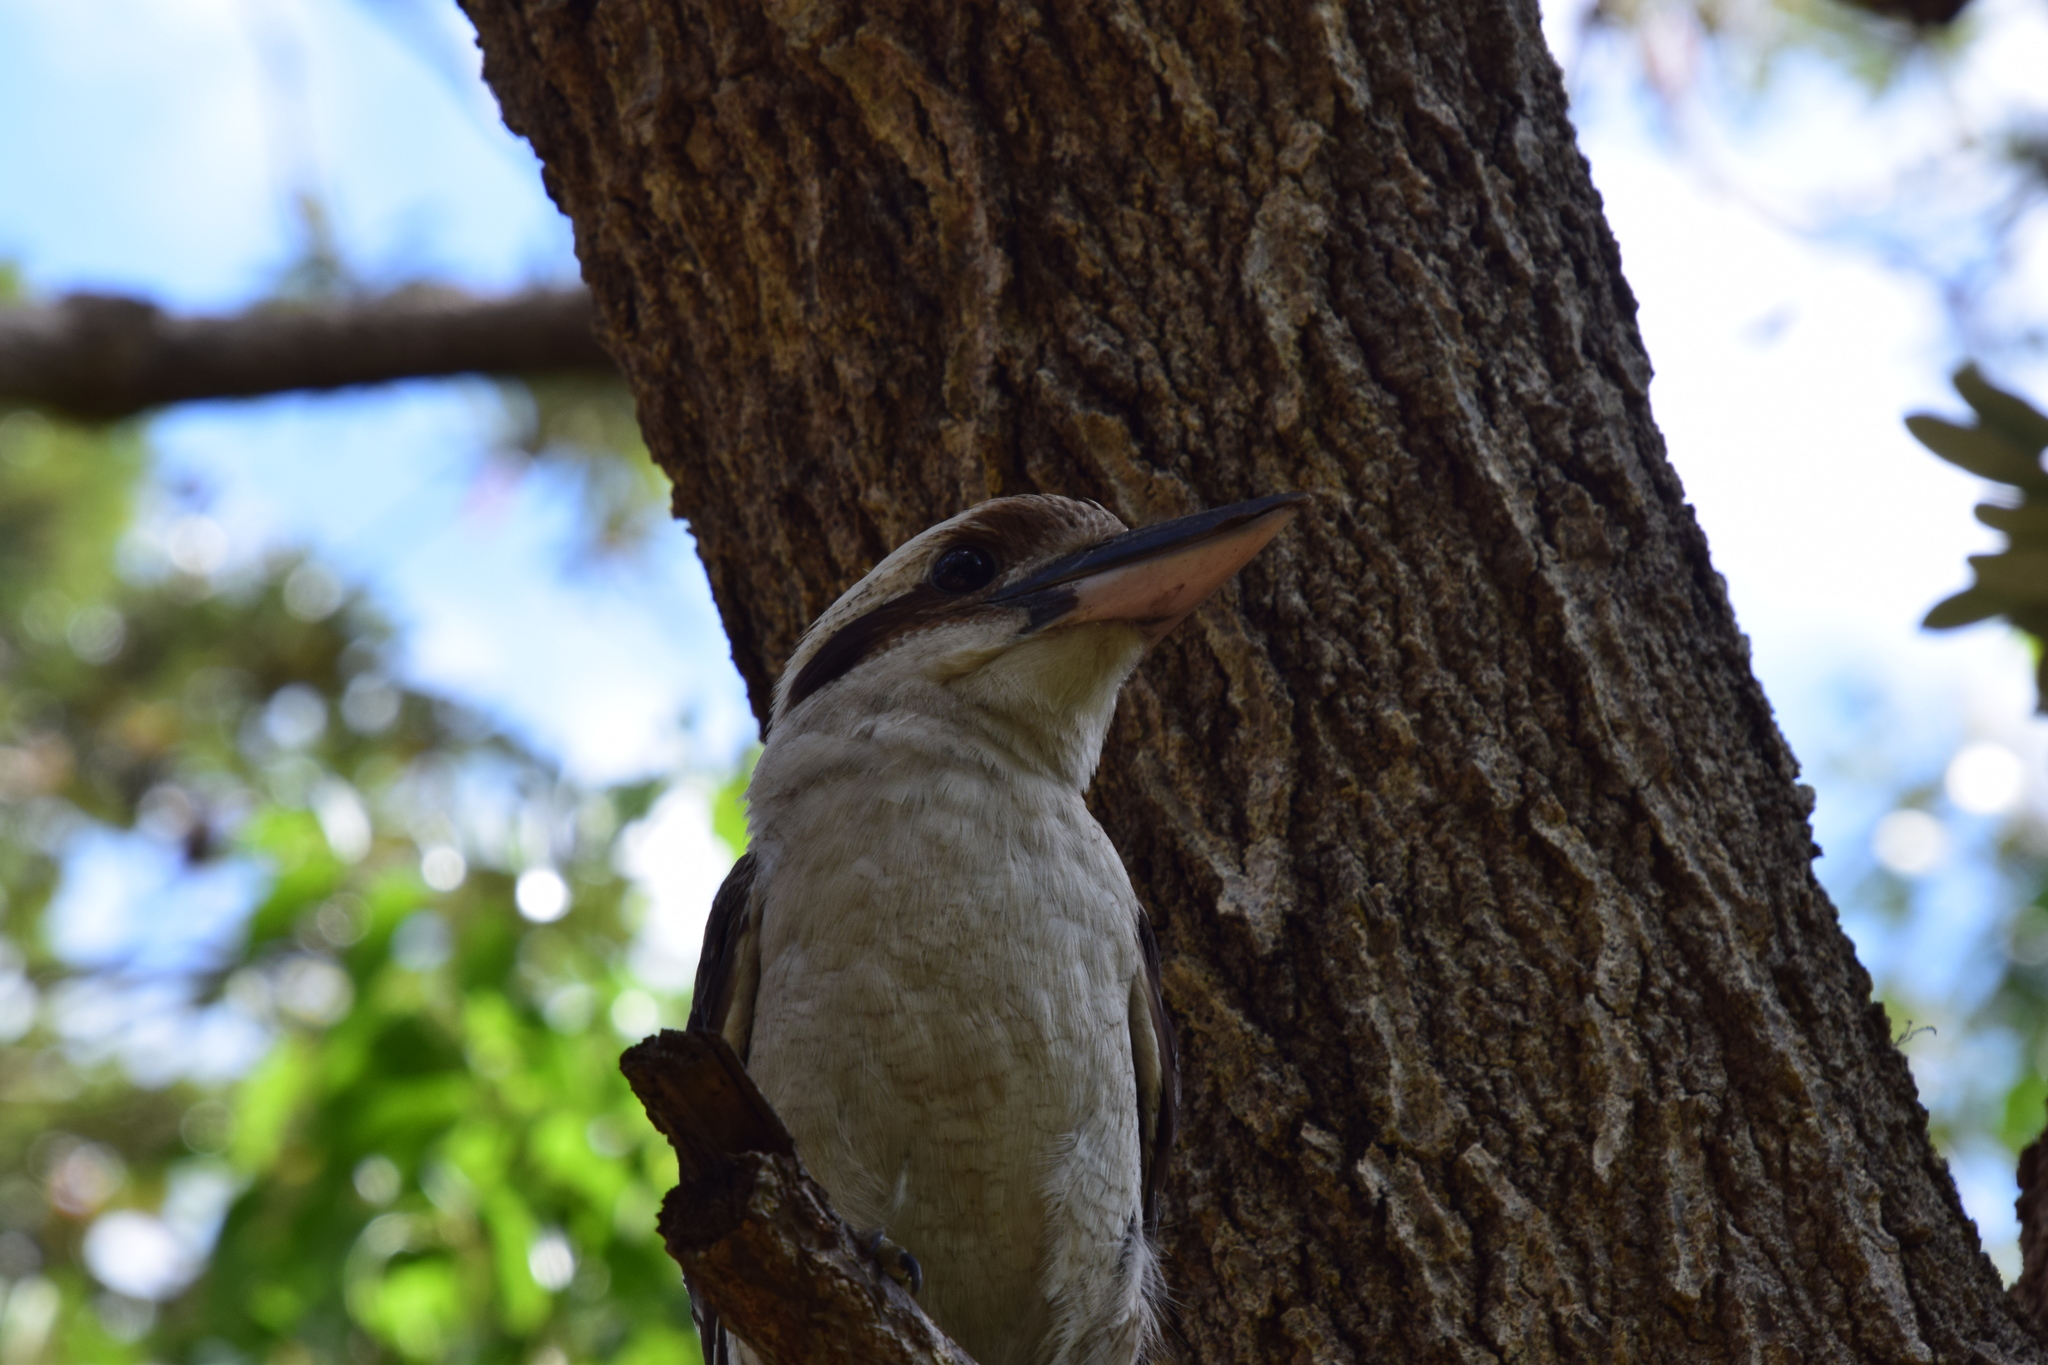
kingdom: Animalia
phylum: Chordata
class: Aves
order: Coraciiformes
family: Alcedinidae
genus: Dacelo
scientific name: Dacelo novaeguineae
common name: Laughing kookaburra
